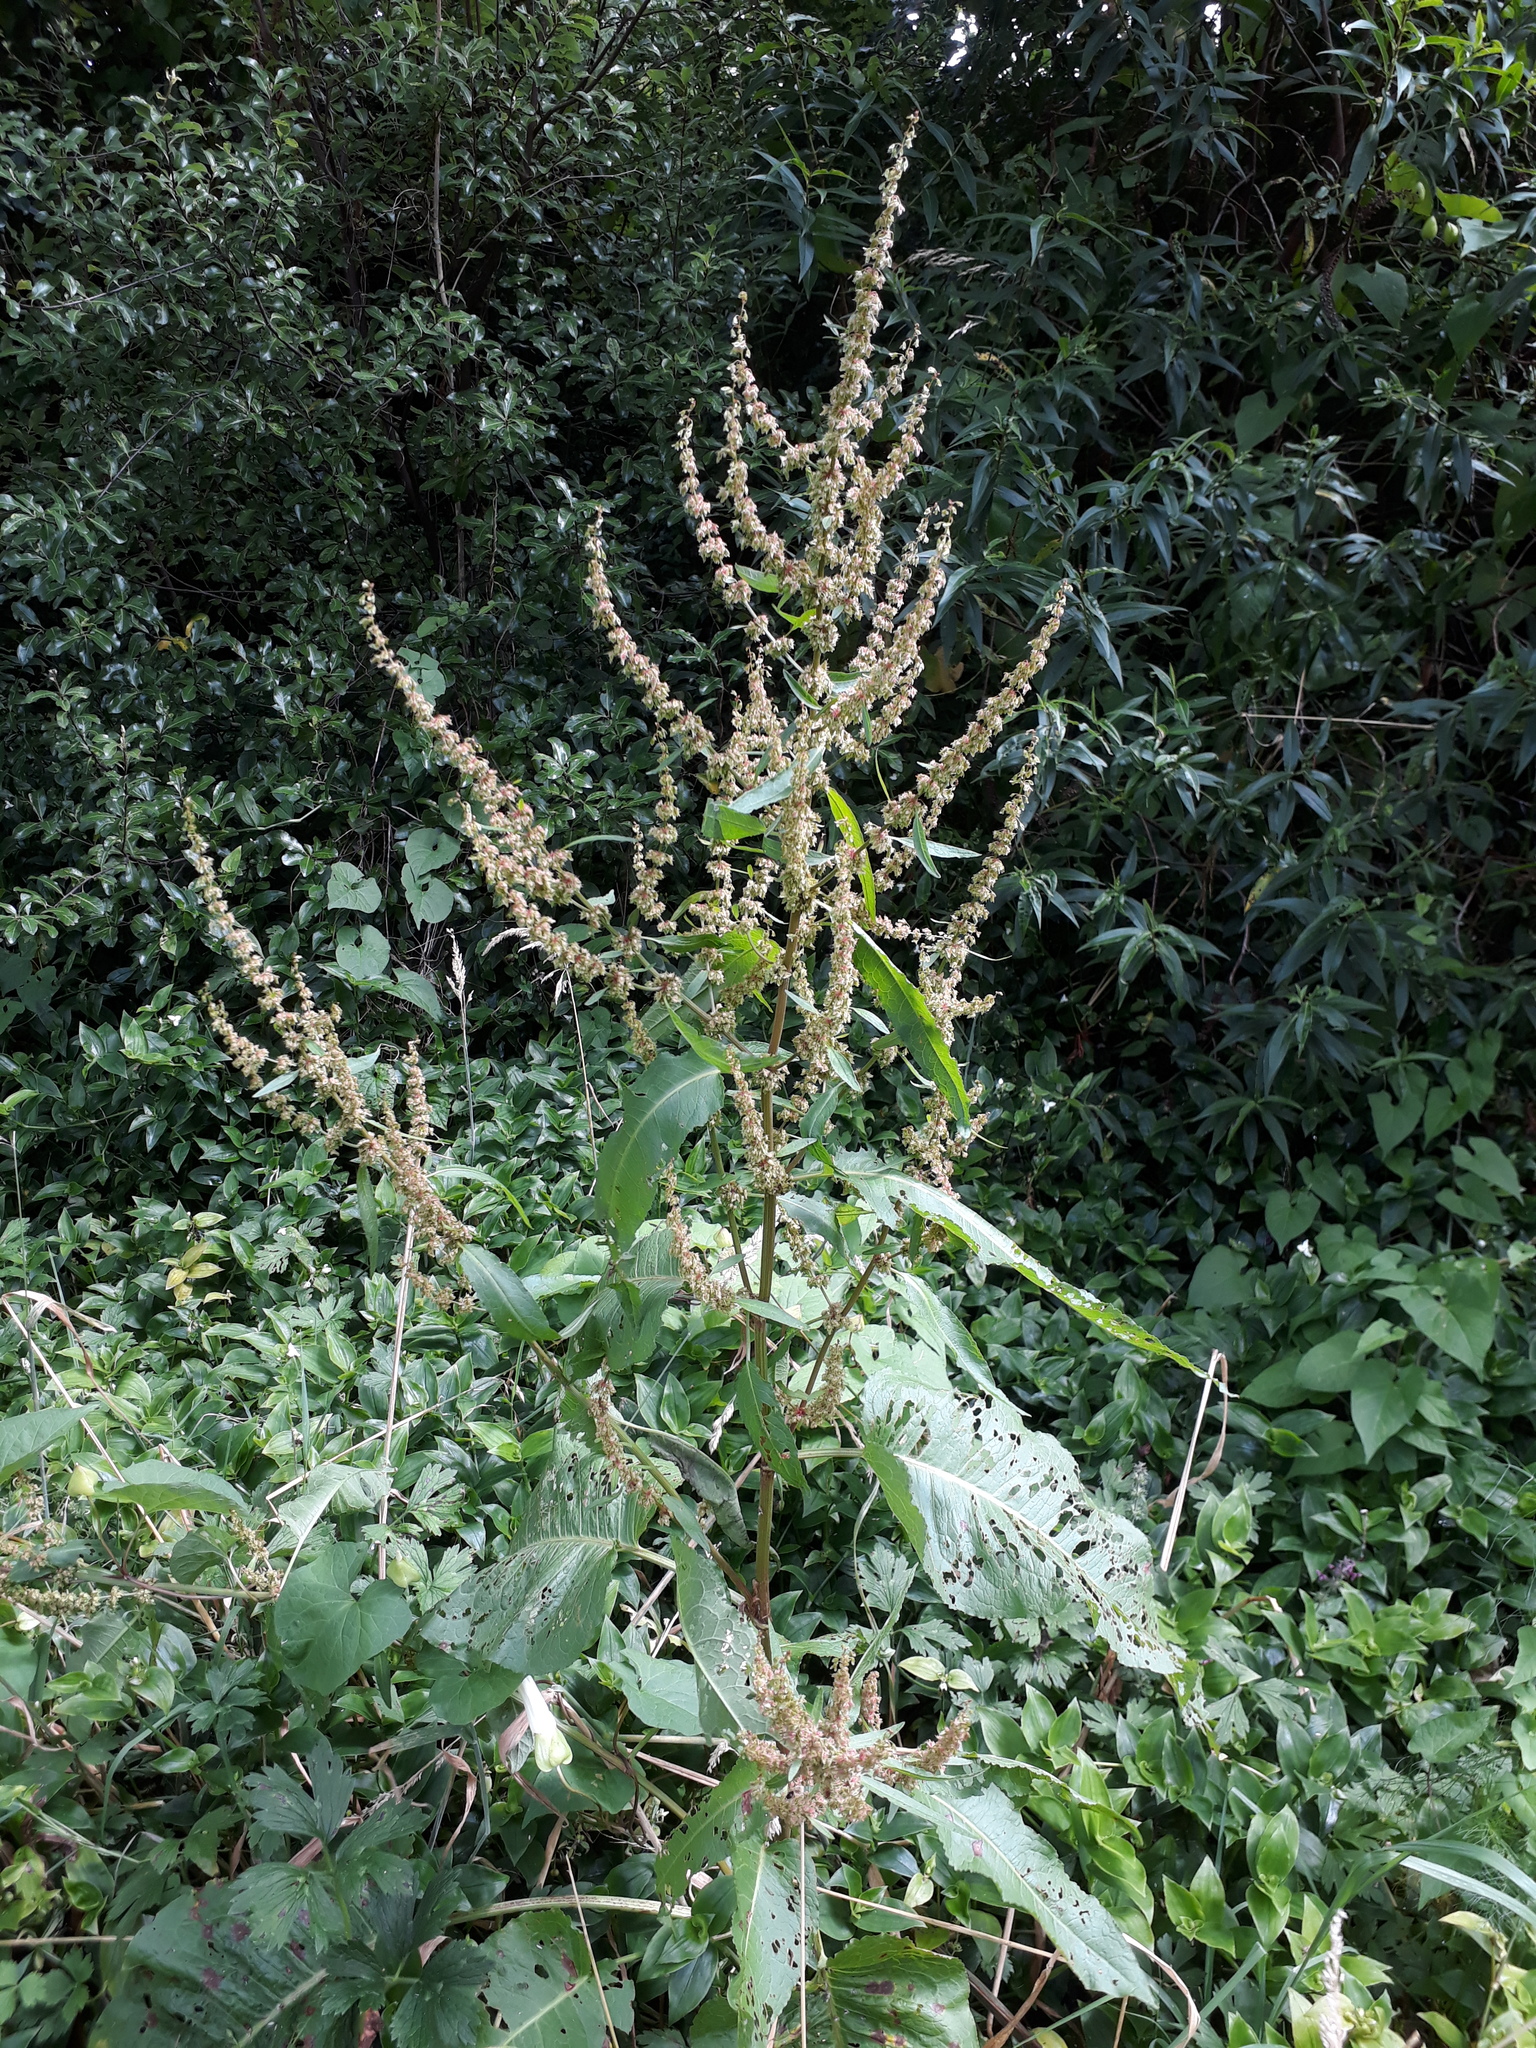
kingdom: Plantae
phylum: Tracheophyta
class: Magnoliopsida
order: Caryophyllales
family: Polygonaceae
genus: Rumex
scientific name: Rumex obtusifolius
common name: Bitter dock
